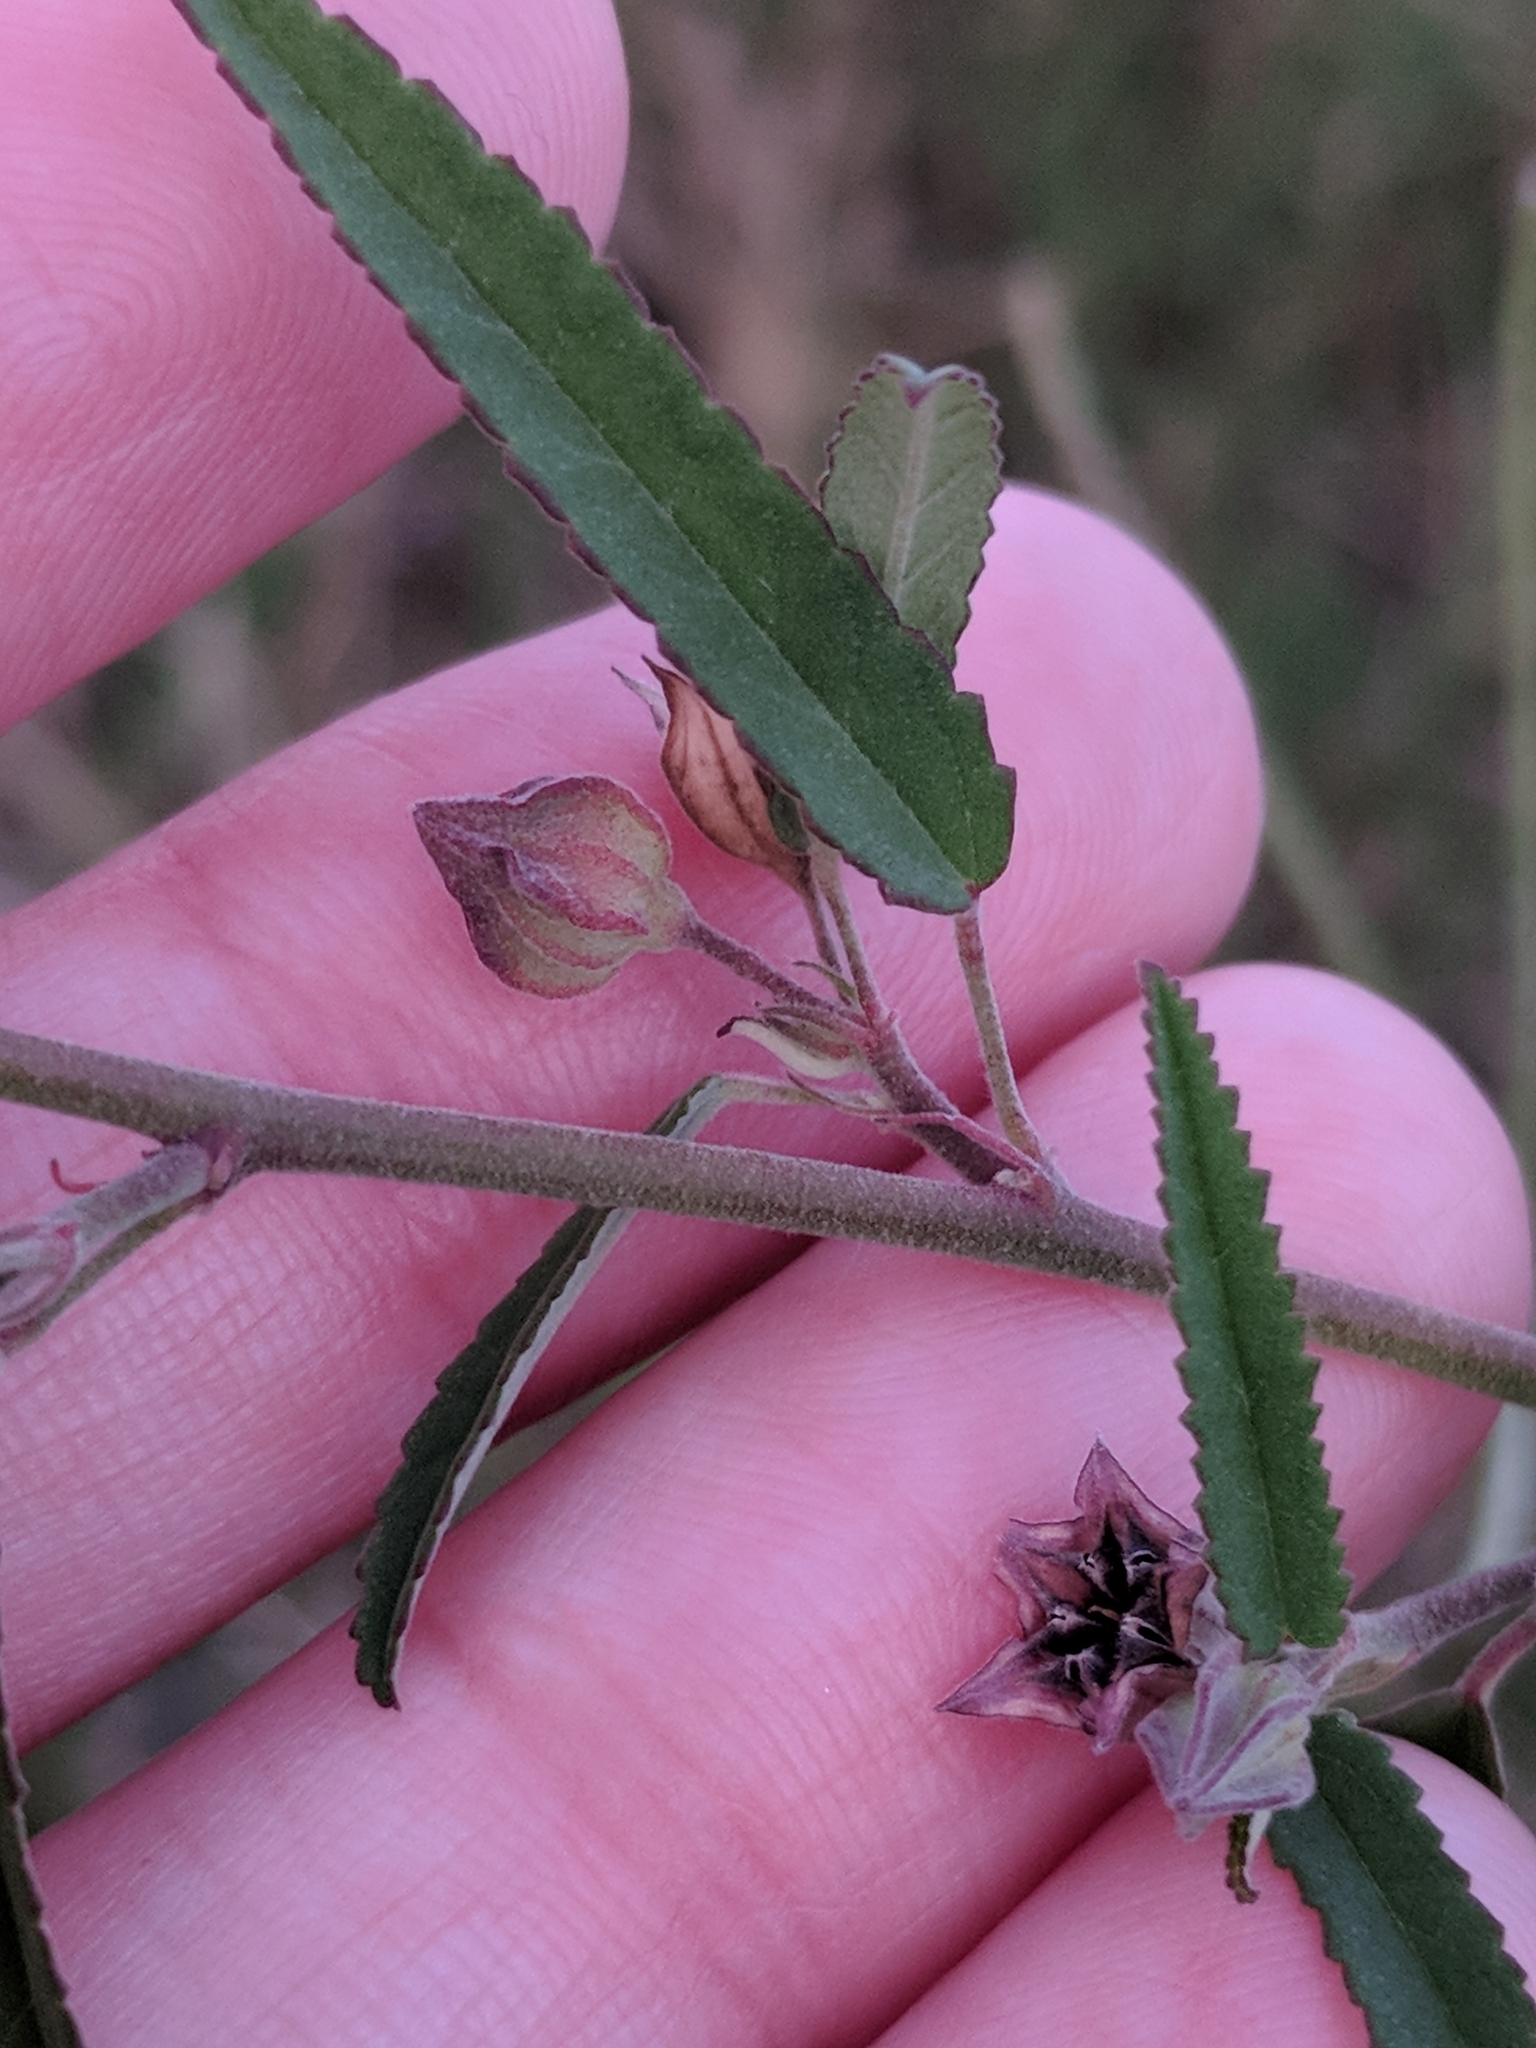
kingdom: Plantae
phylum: Tracheophyta
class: Magnoliopsida
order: Malvales
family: Malvaceae
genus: Sida
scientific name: Sida spinosa
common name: Prickly fanpetals
